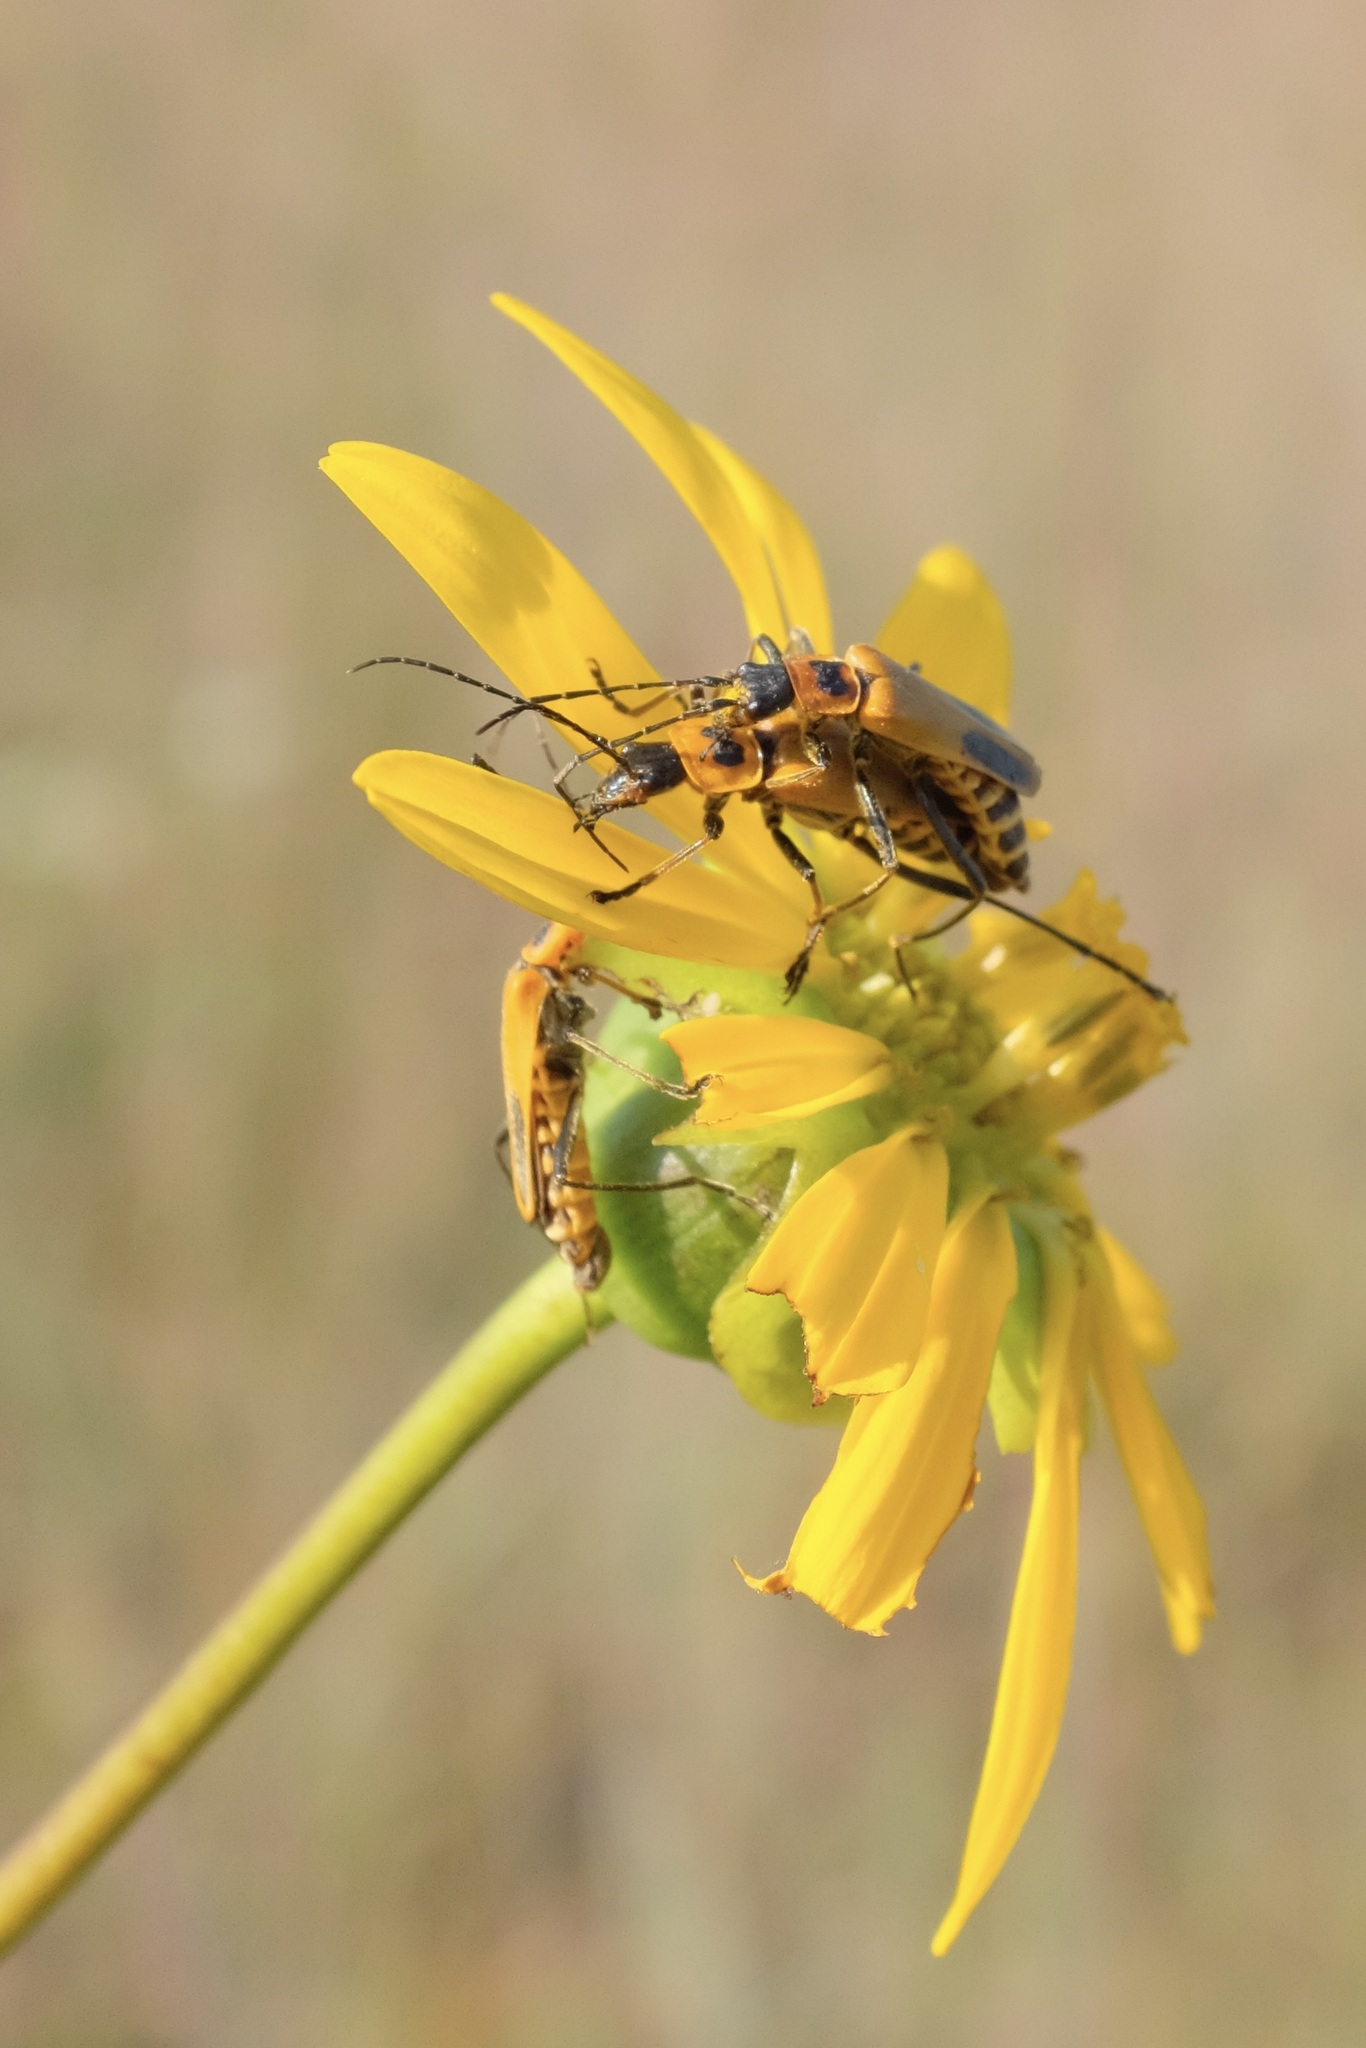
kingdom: Animalia
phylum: Arthropoda
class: Insecta
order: Coleoptera
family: Cantharidae
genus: Chauliognathus
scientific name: Chauliognathus pensylvanicus
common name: Goldenrod soldier beetle
